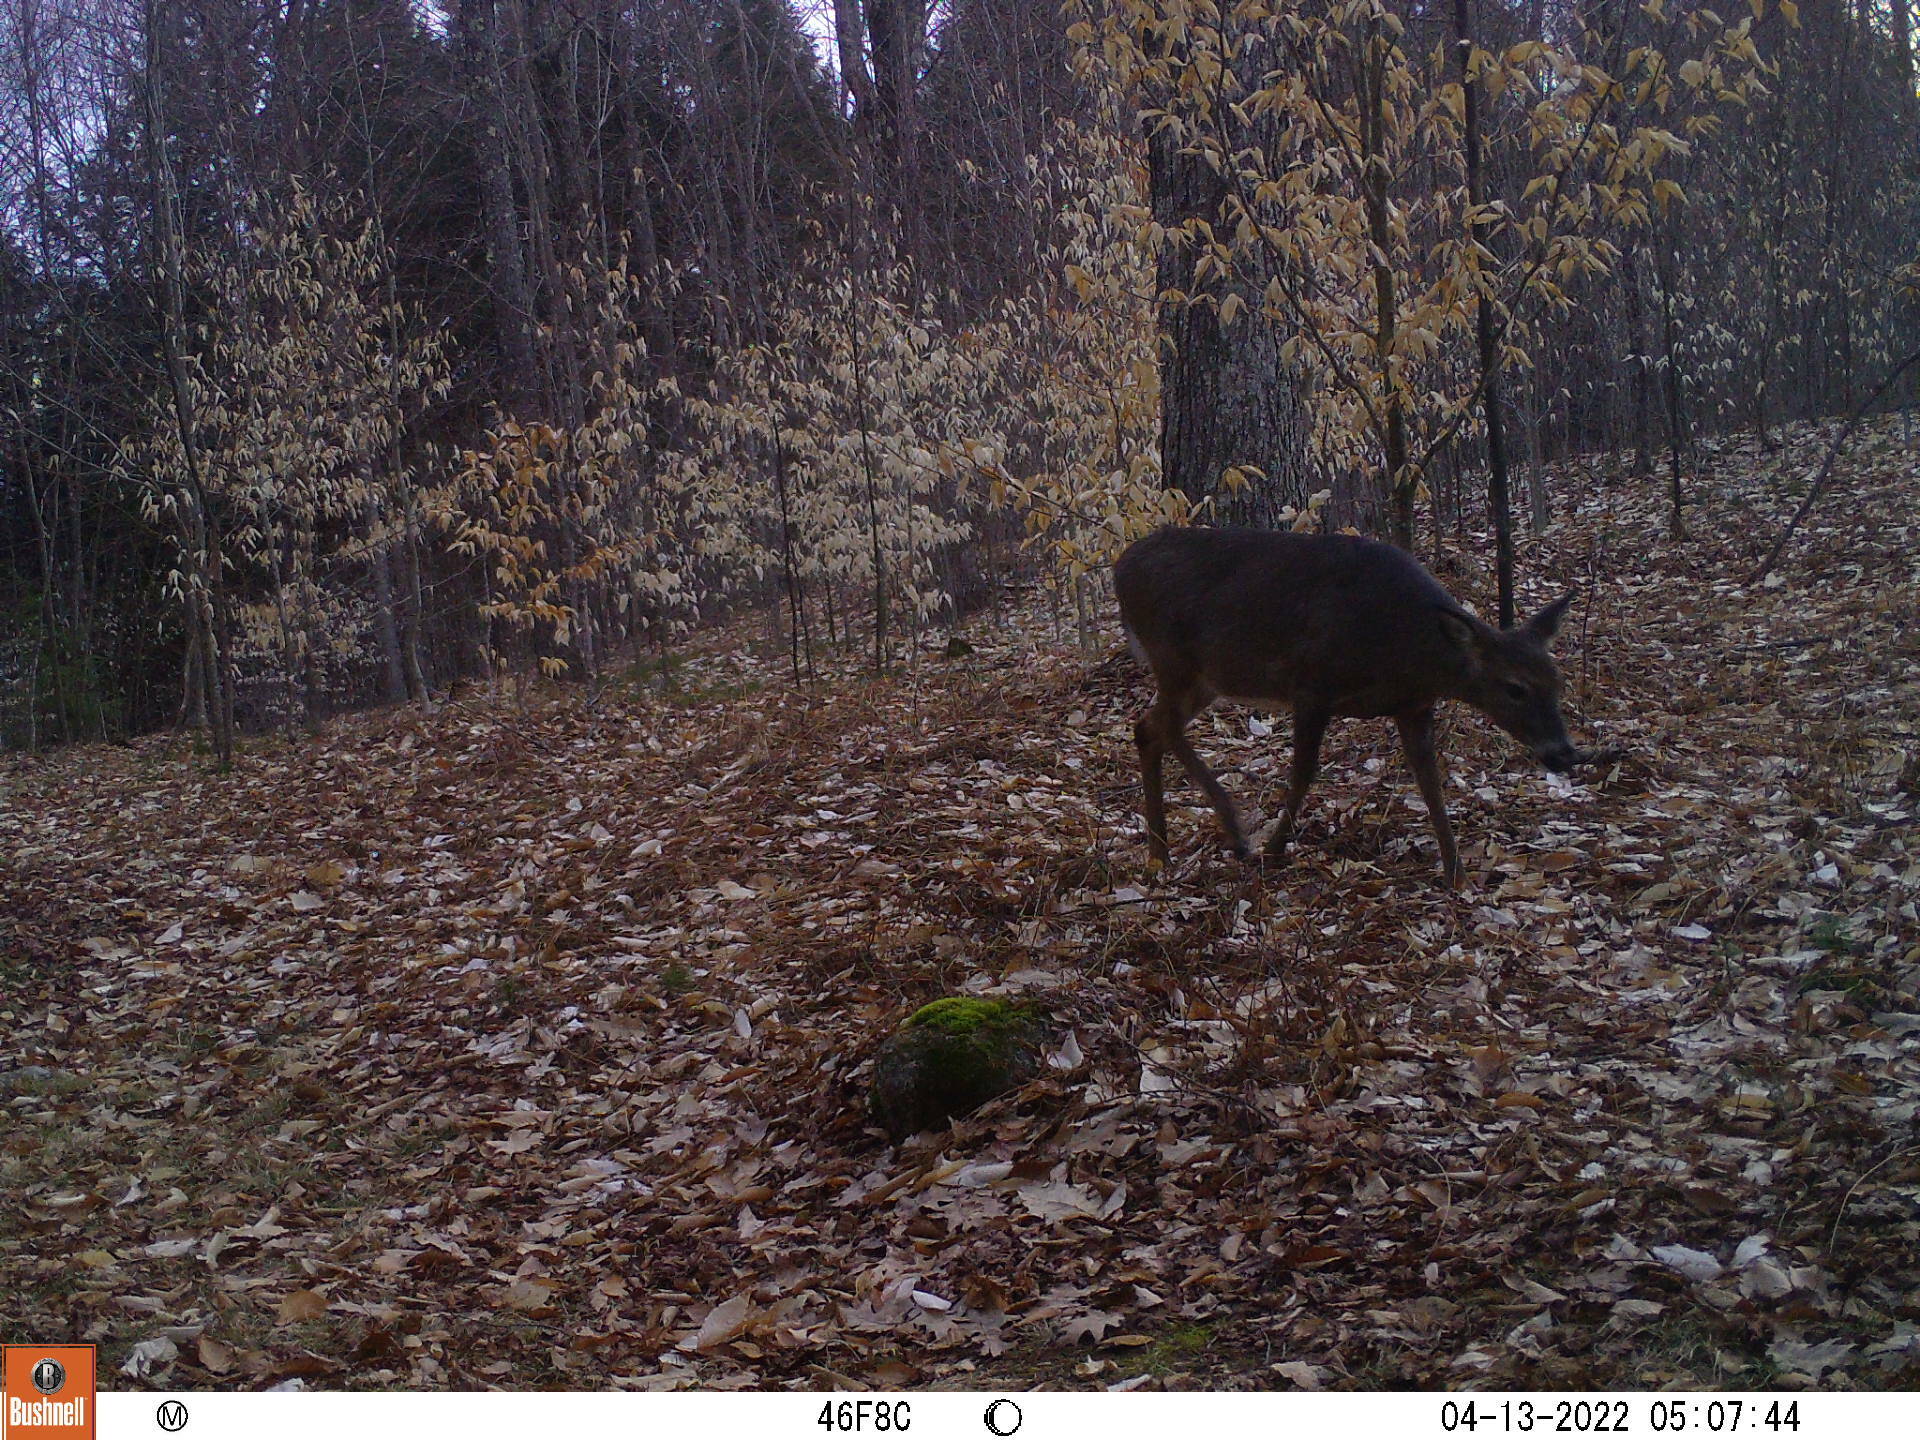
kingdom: Animalia
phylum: Chordata
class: Mammalia
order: Artiodactyla
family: Cervidae
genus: Odocoileus
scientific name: Odocoileus virginianus
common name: White-tailed deer
